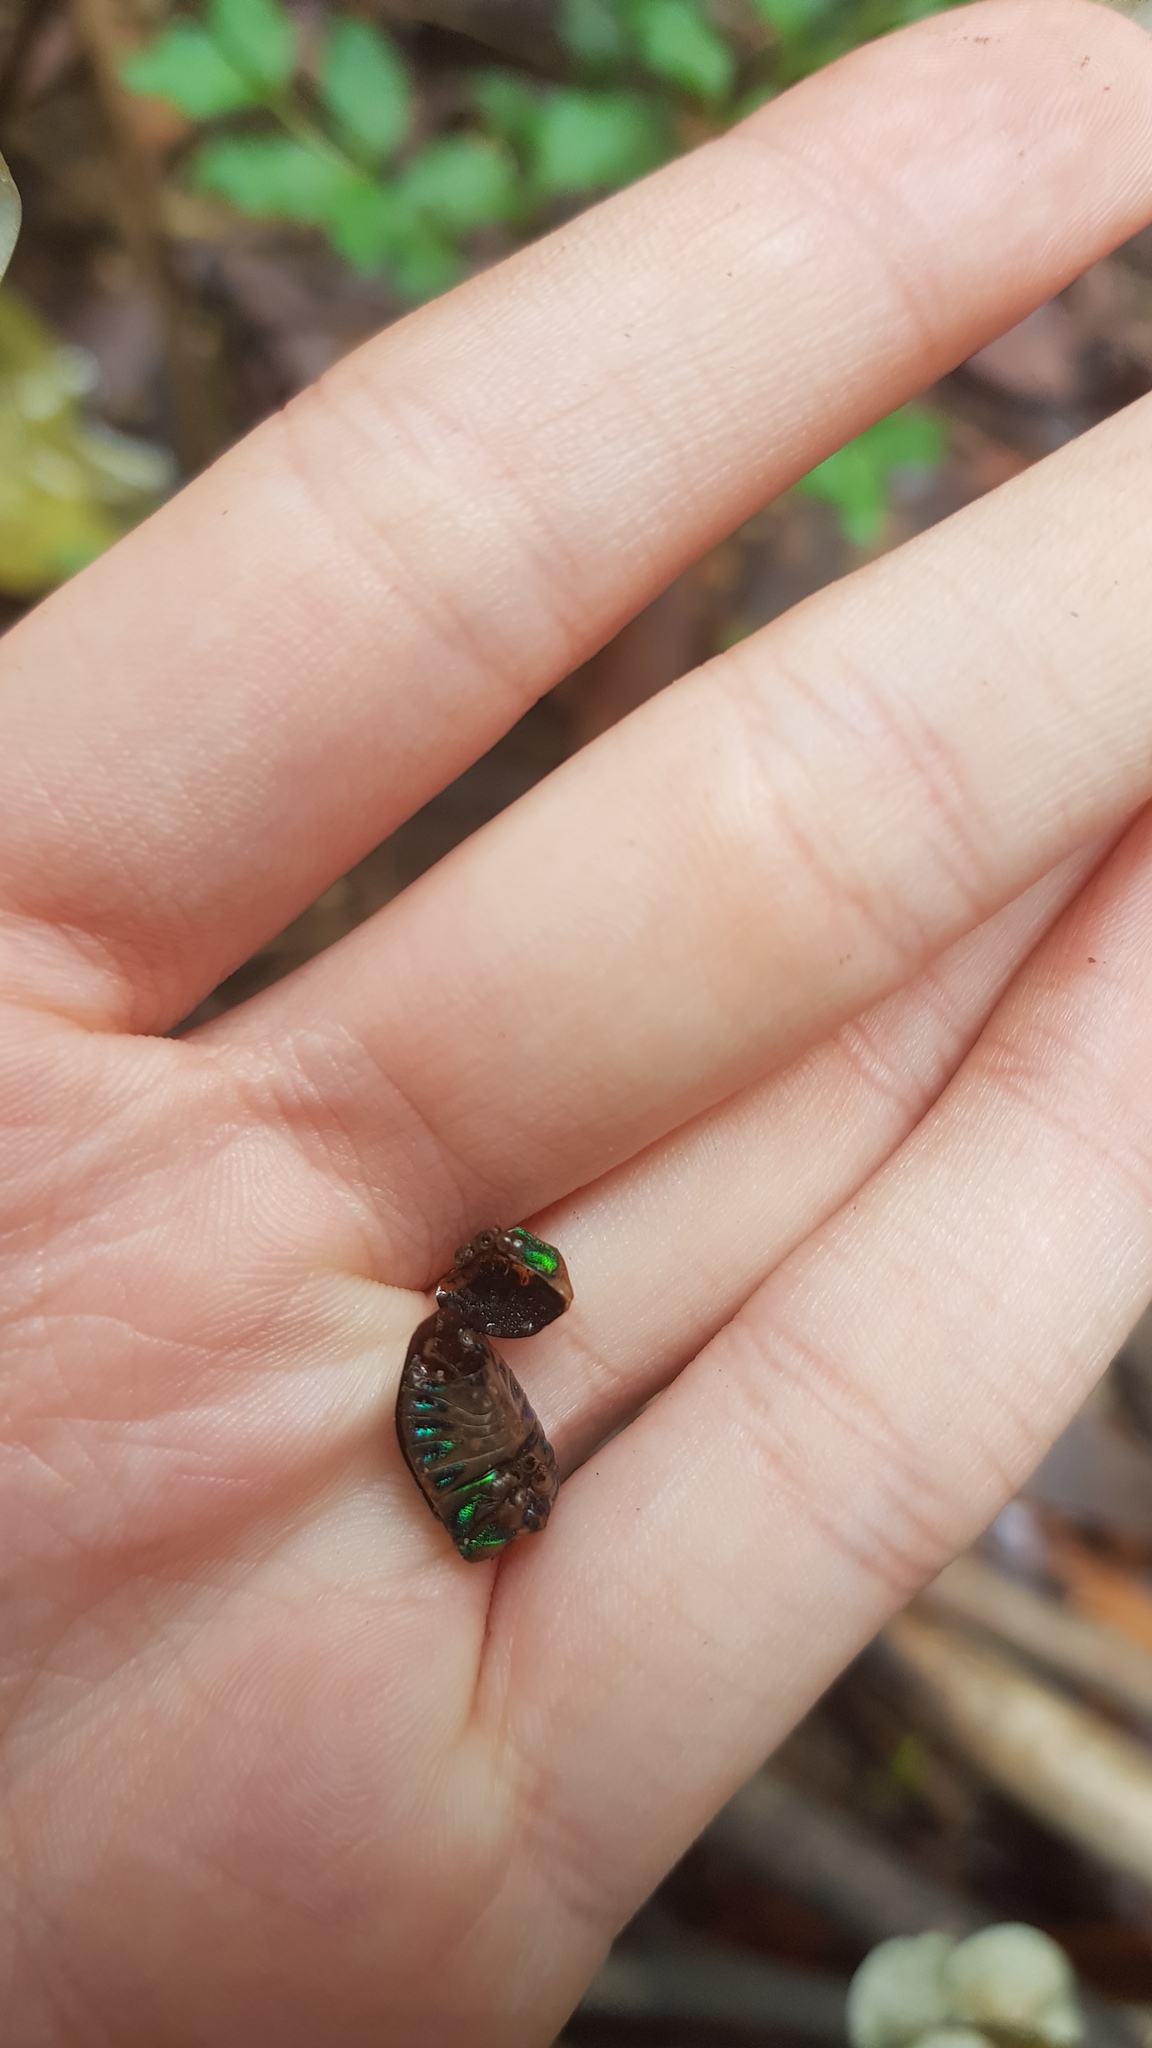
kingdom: Animalia
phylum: Arthropoda
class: Insecta
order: Hemiptera
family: Scutelleridae
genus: Scutiphora
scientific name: Scutiphora pedicellata
